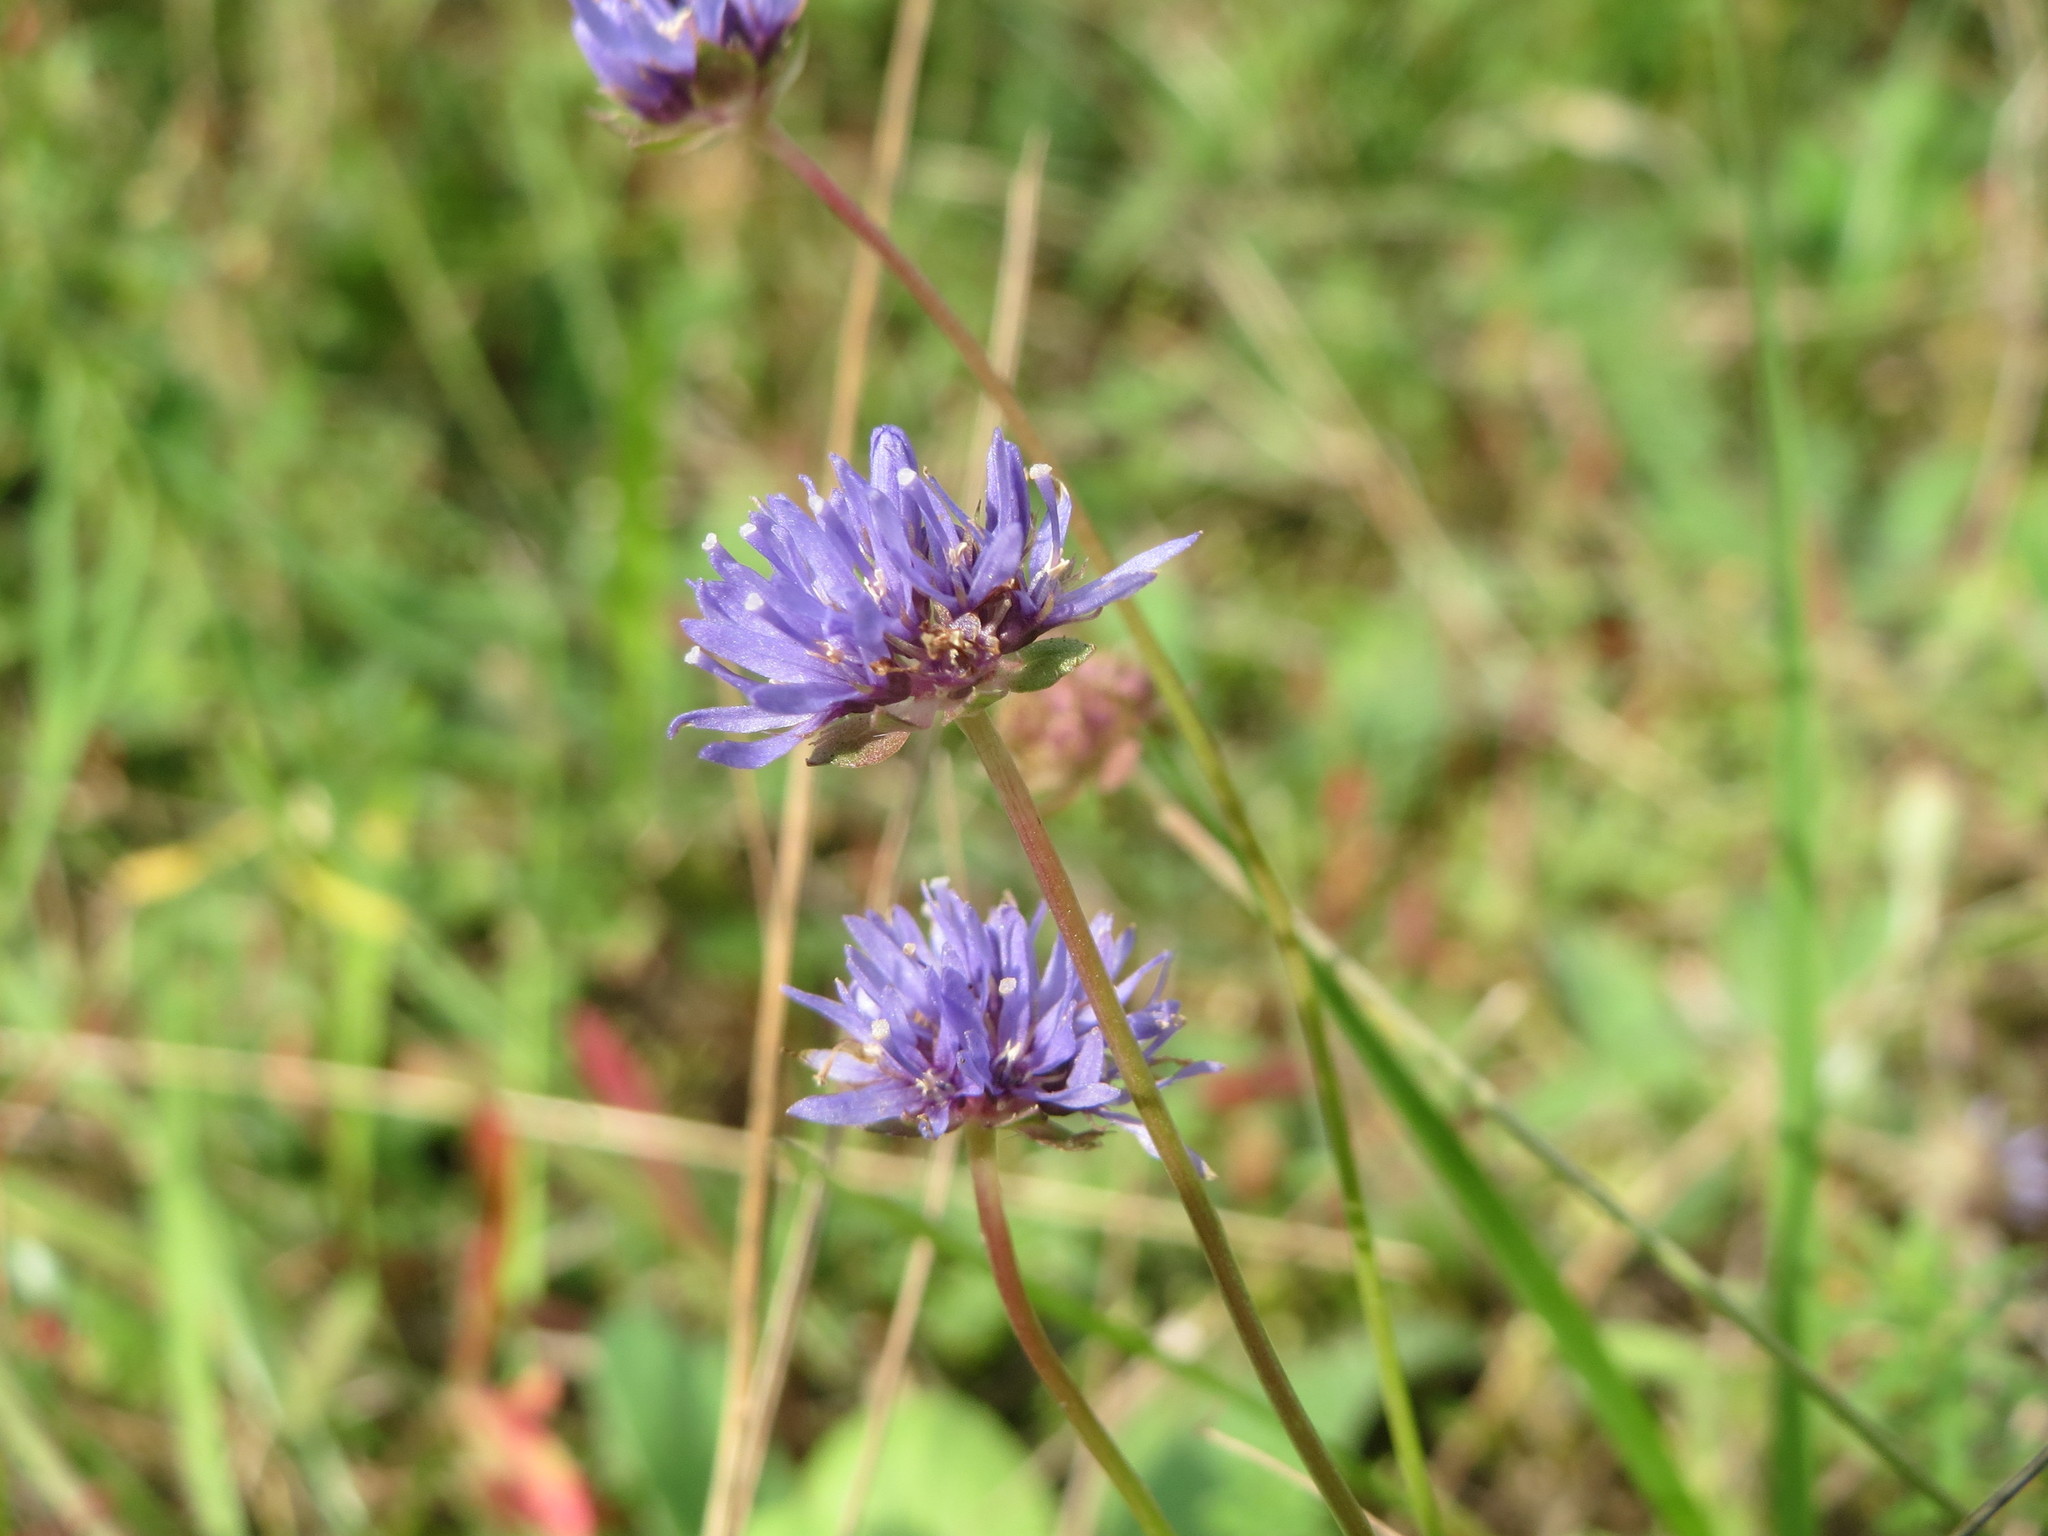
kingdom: Plantae
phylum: Tracheophyta
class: Magnoliopsida
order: Asterales
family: Campanulaceae
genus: Jasione
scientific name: Jasione montana
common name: Sheep's-bit
